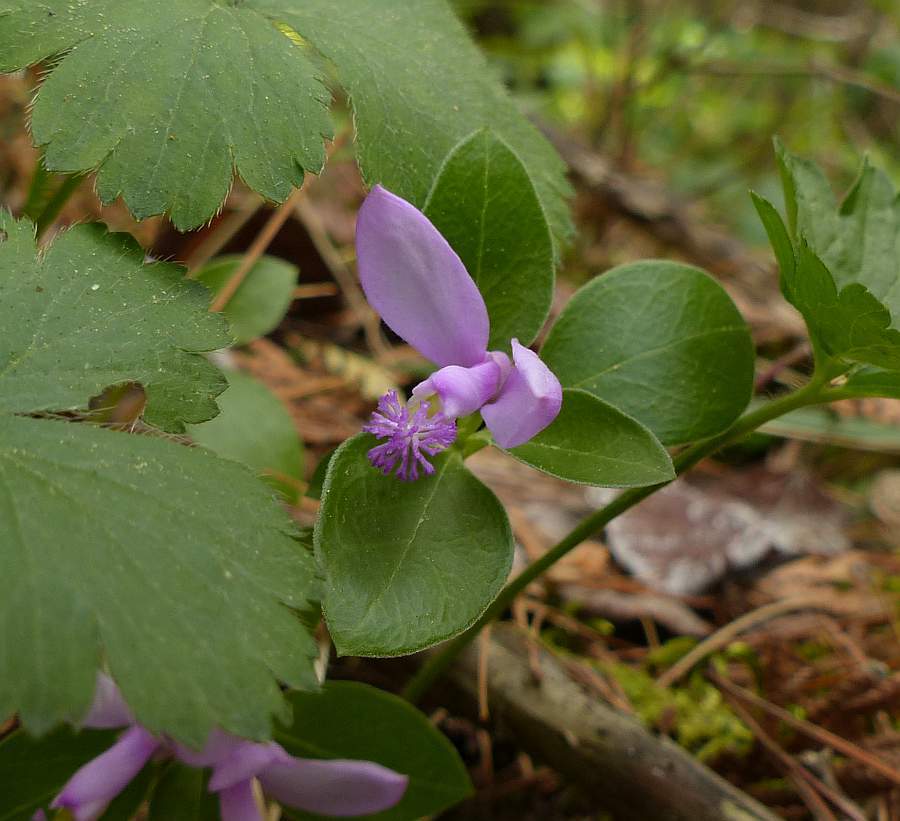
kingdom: Plantae
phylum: Tracheophyta
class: Magnoliopsida
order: Fabales
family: Polygalaceae
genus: Polygaloides
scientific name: Polygaloides paucifolia
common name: Bird-on-the-wing
